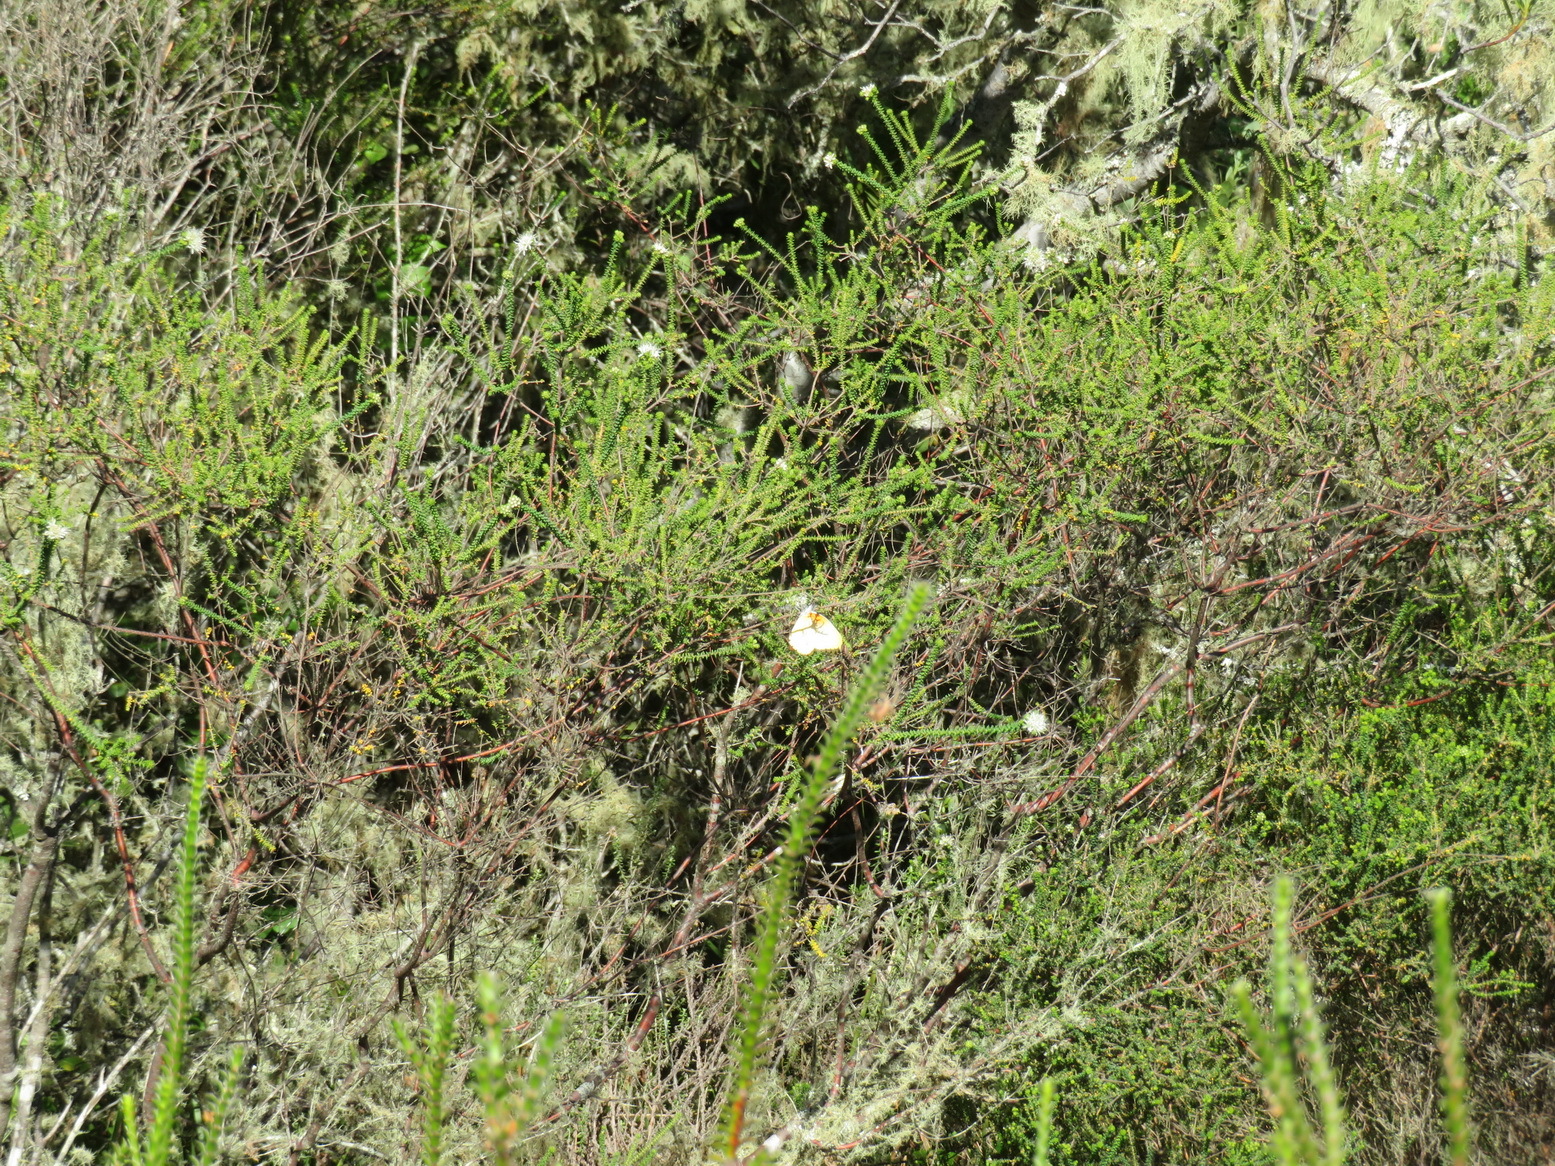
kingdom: Plantae
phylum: Tracheophyta
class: Magnoliopsida
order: Sapindales
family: Rutaceae
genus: Agathosma
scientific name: Agathosma apiculata
